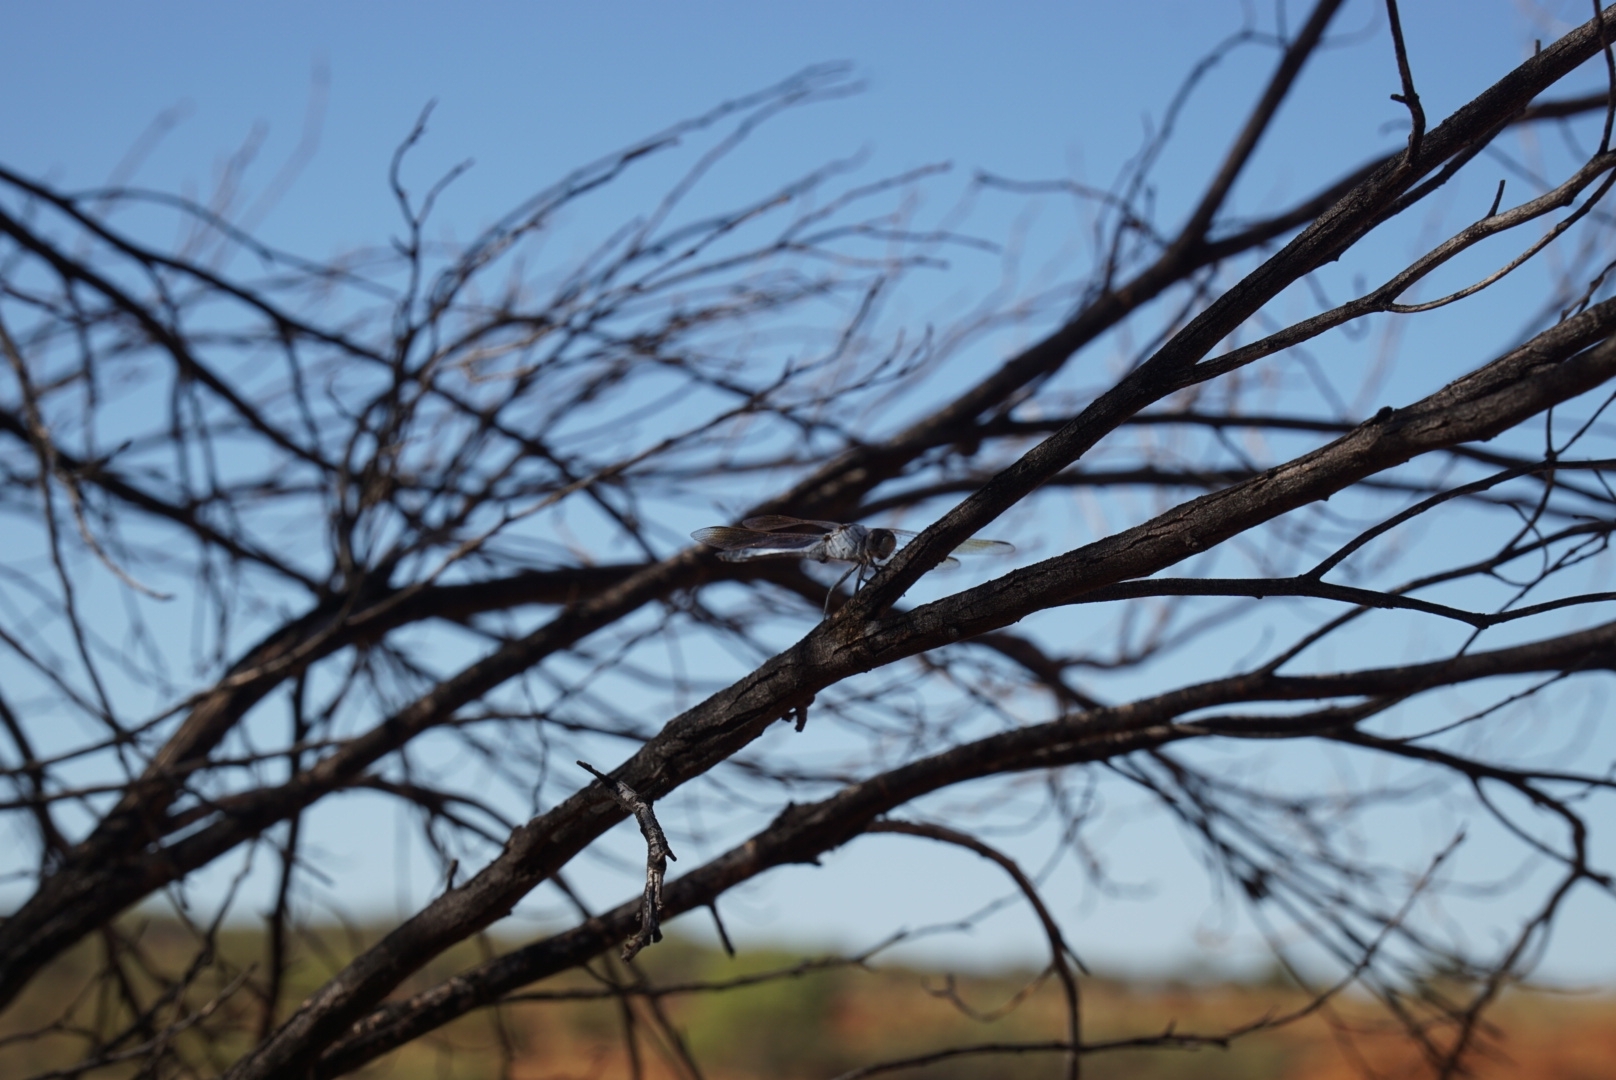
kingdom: Animalia
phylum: Arthropoda
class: Insecta
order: Odonata
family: Libellulidae
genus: Orthetrum
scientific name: Orthetrum caledonicum
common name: Blue skimmer
